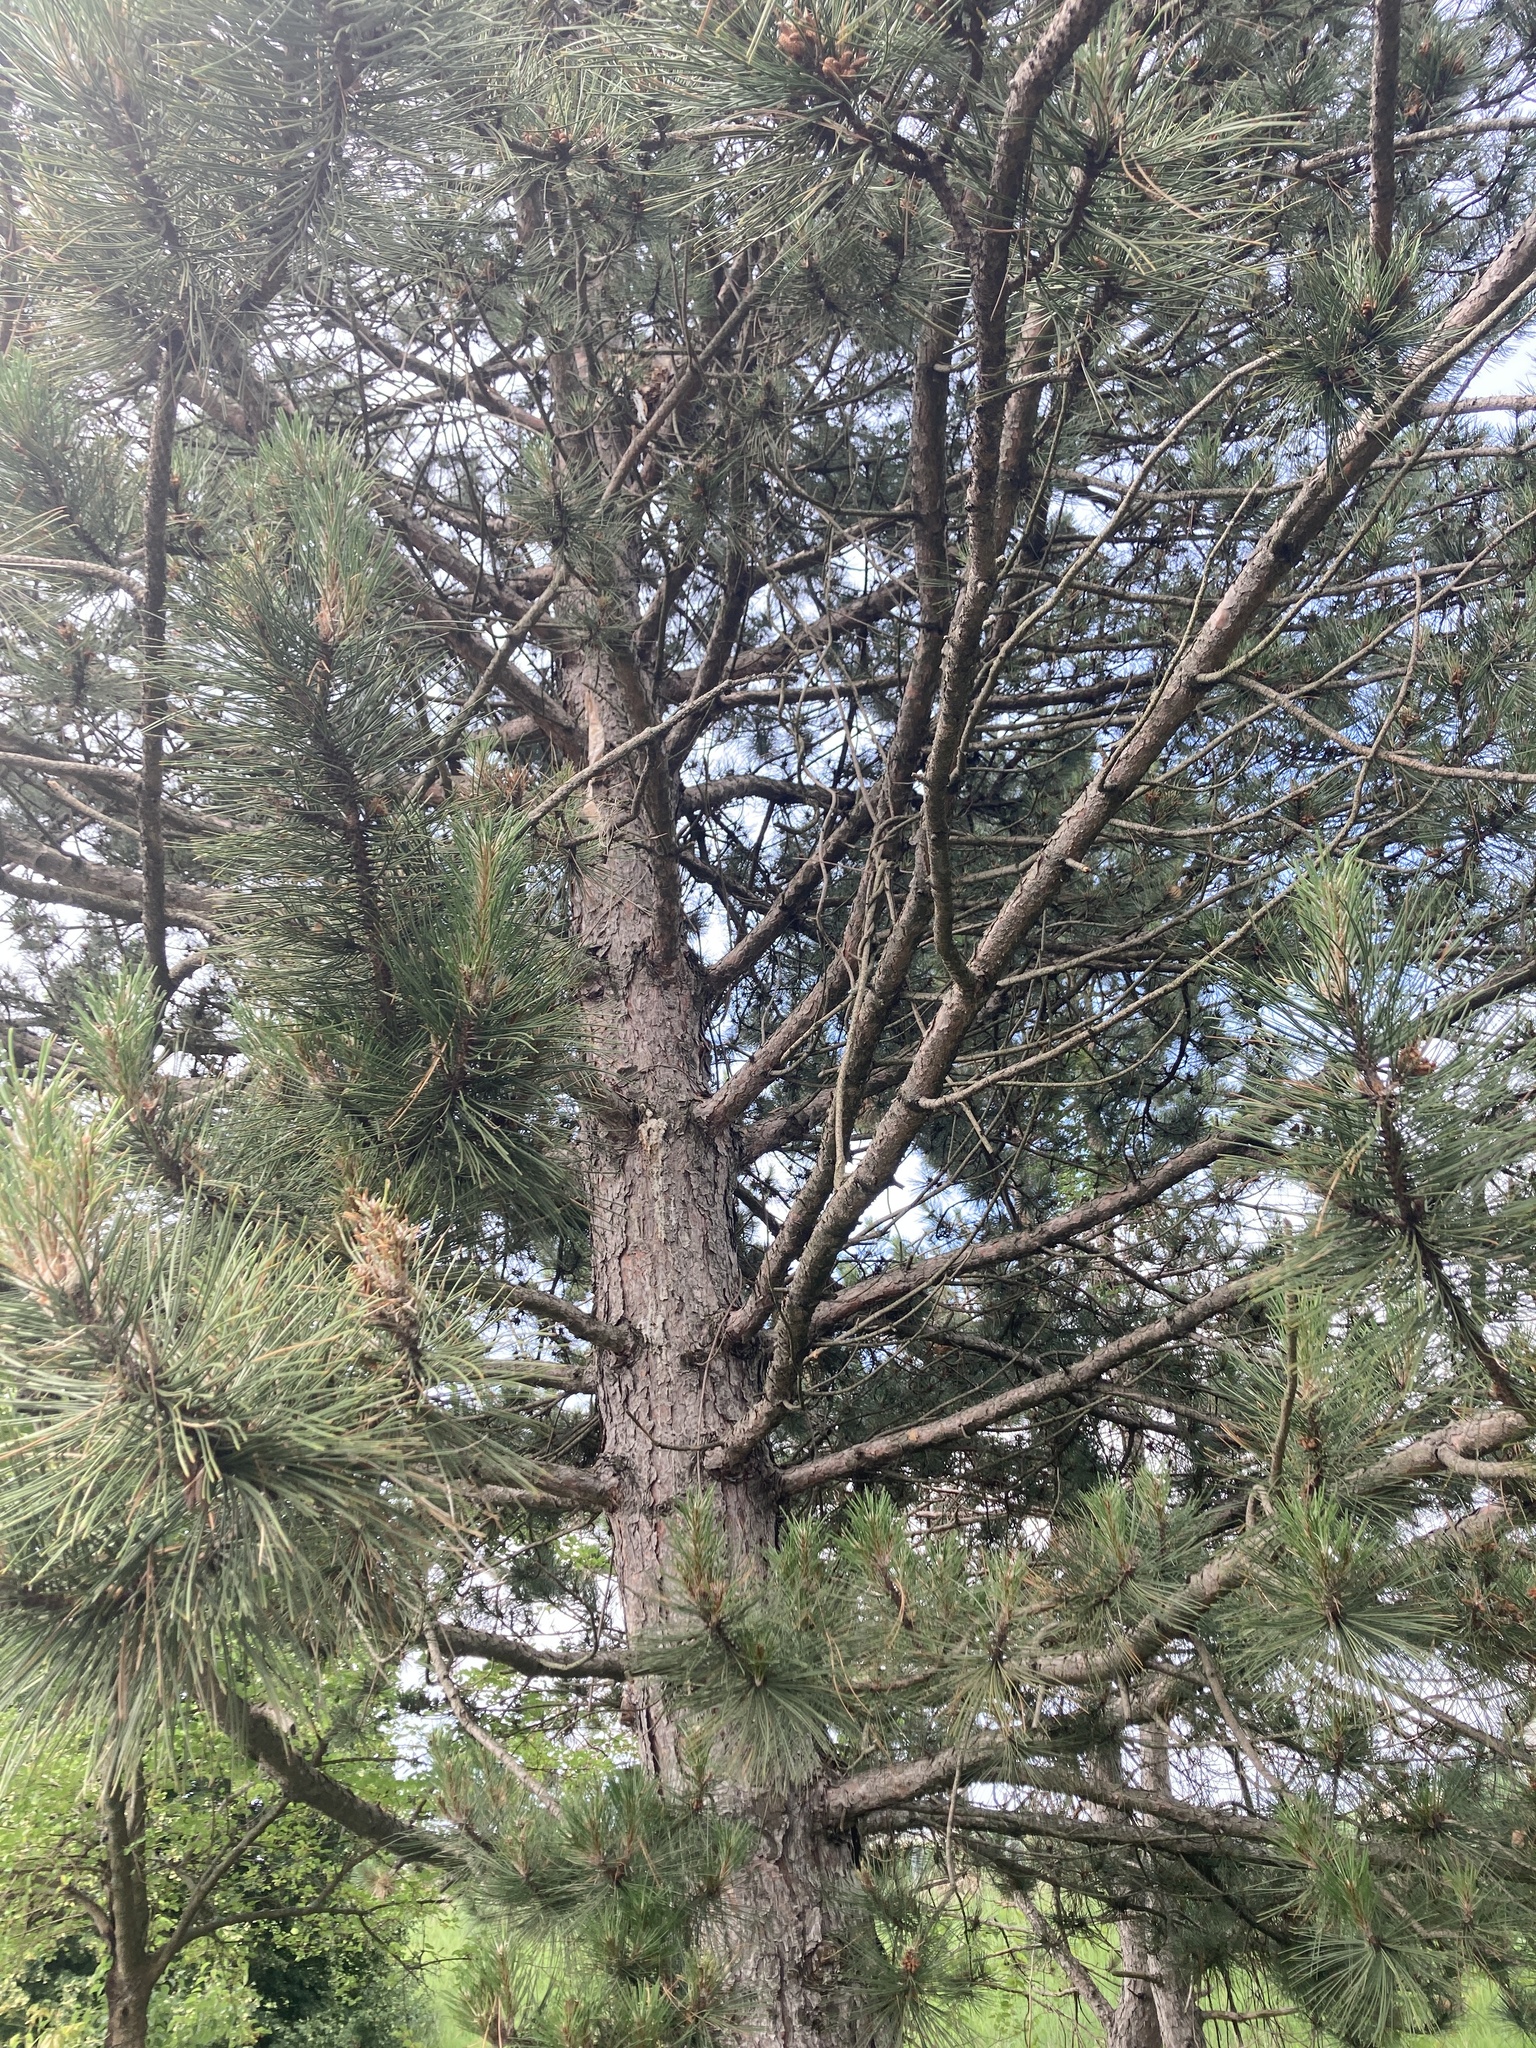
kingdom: Plantae
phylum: Tracheophyta
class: Pinopsida
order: Pinales
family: Pinaceae
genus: Pinus
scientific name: Pinus rigida
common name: Pitch pine
